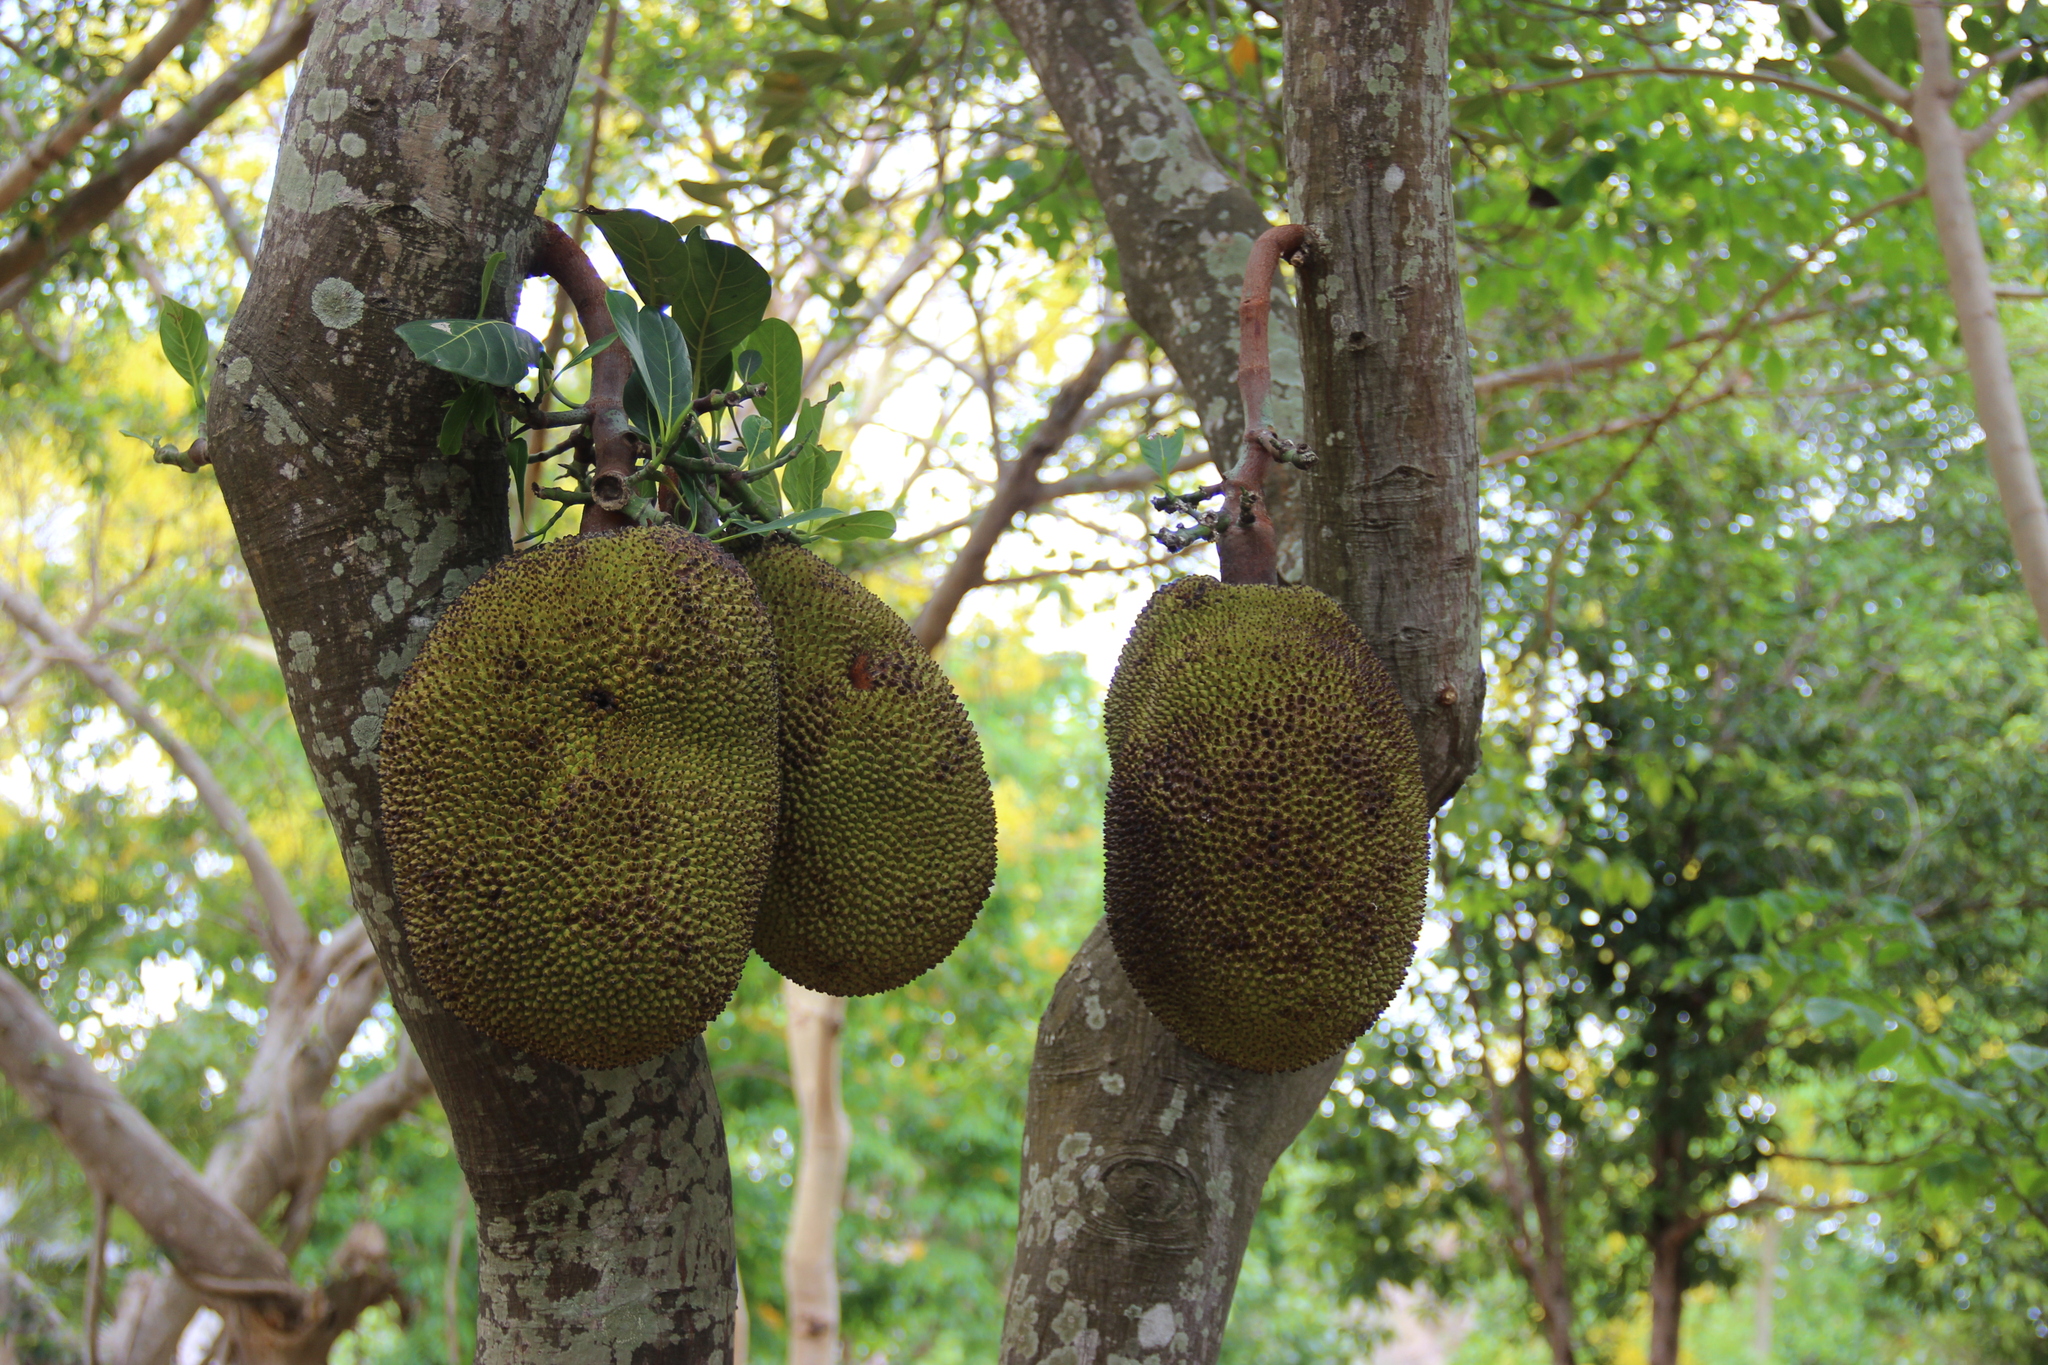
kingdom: Plantae
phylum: Tracheophyta
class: Magnoliopsida
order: Rosales
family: Moraceae
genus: Artocarpus
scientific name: Artocarpus heterophyllus
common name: Jackfruit
